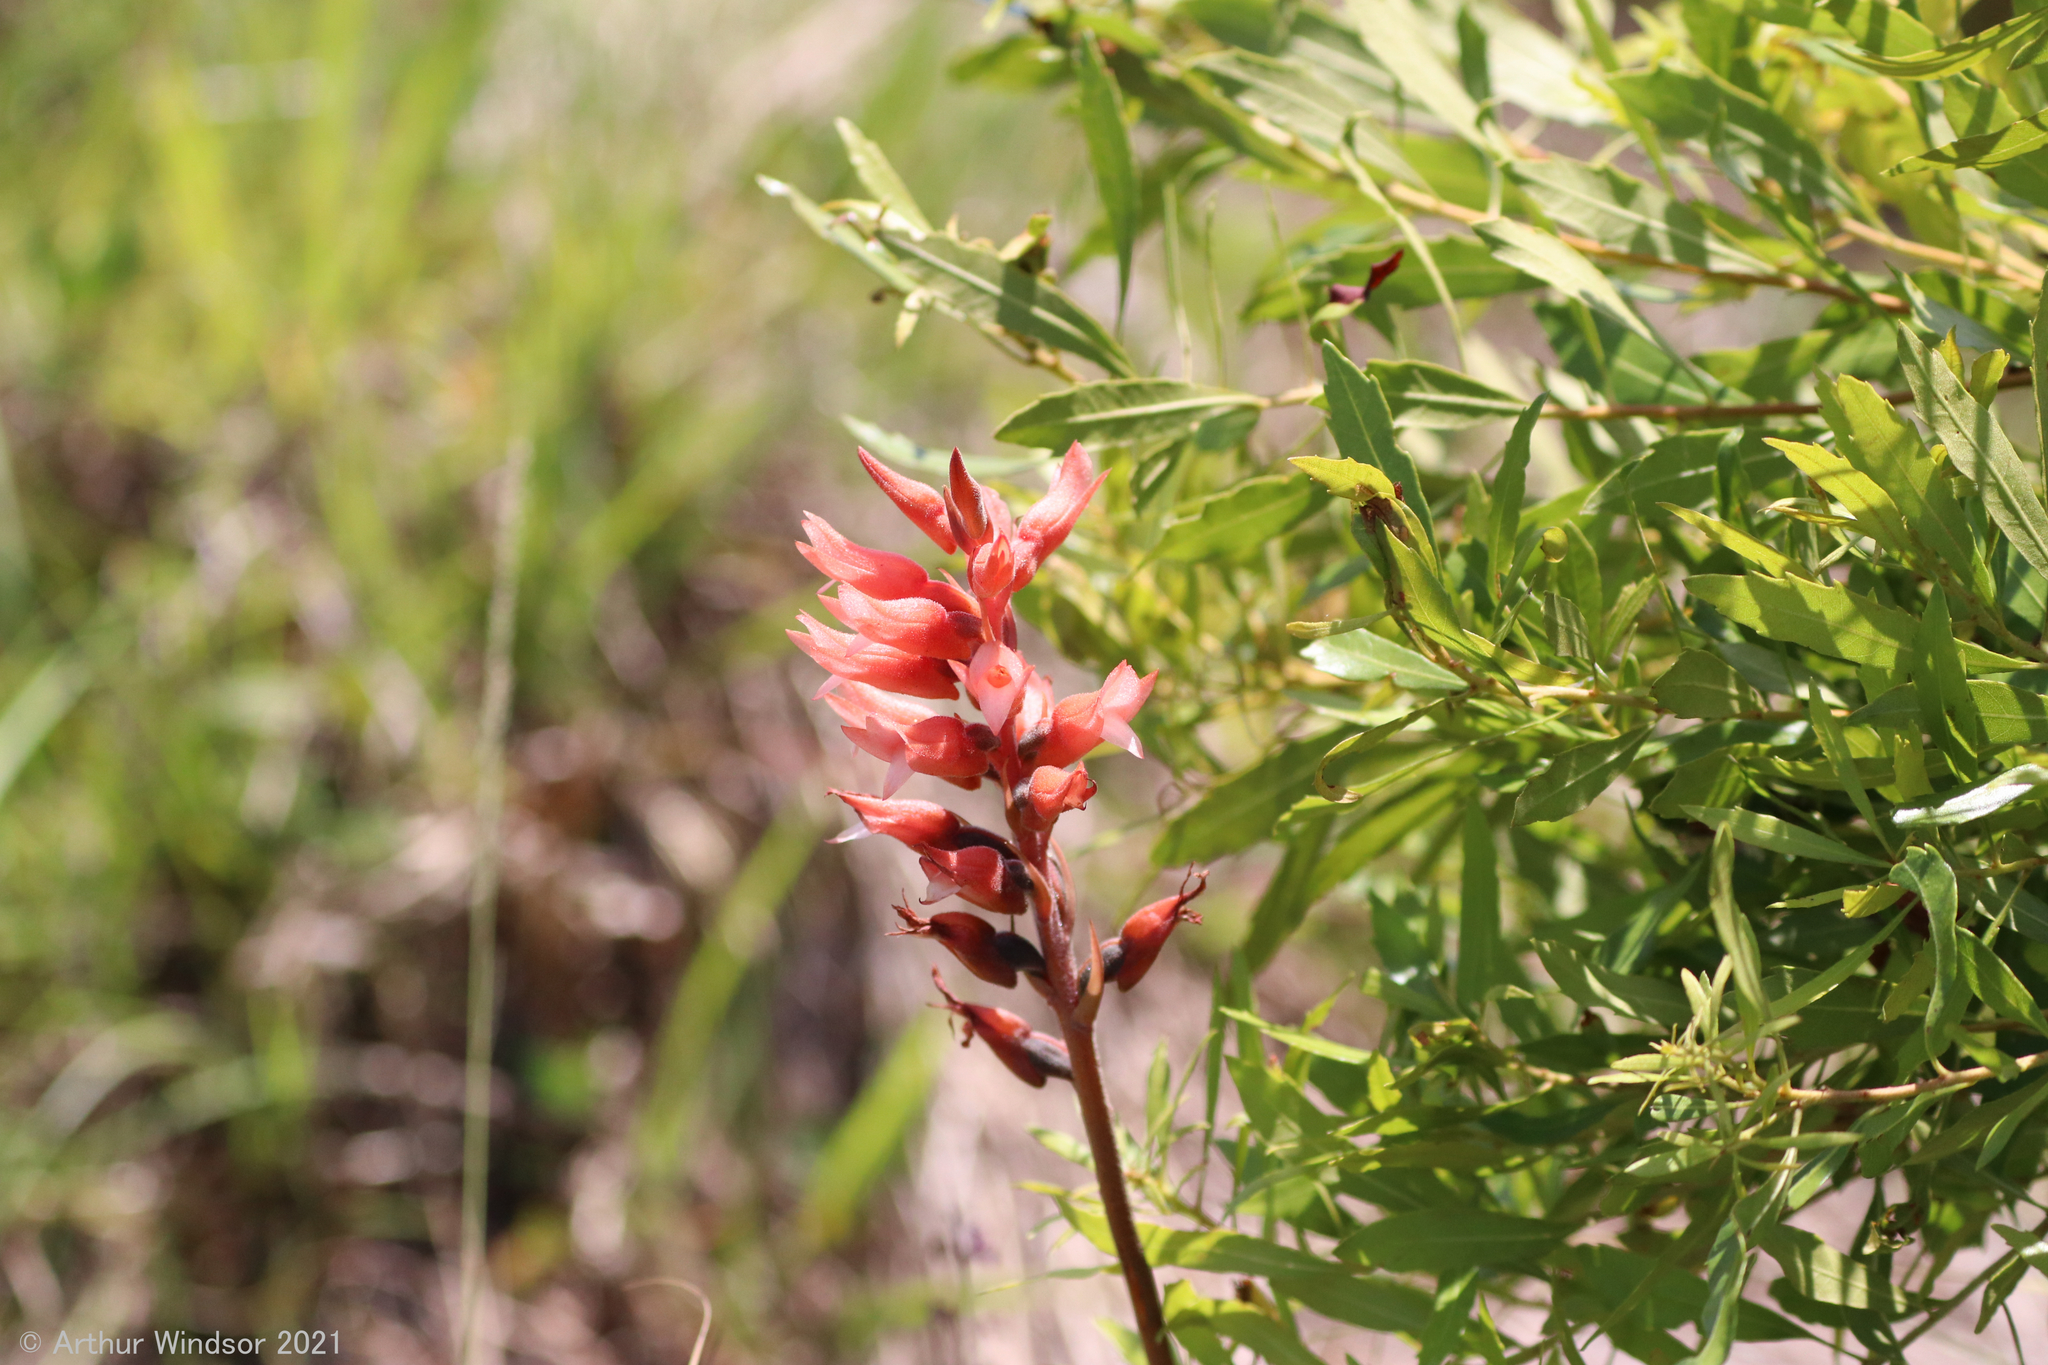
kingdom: Plantae
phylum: Tracheophyta
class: Liliopsida
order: Asparagales
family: Orchidaceae
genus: Sacoila
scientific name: Sacoila lanceolata
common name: Leafless beaked ladiestresses
